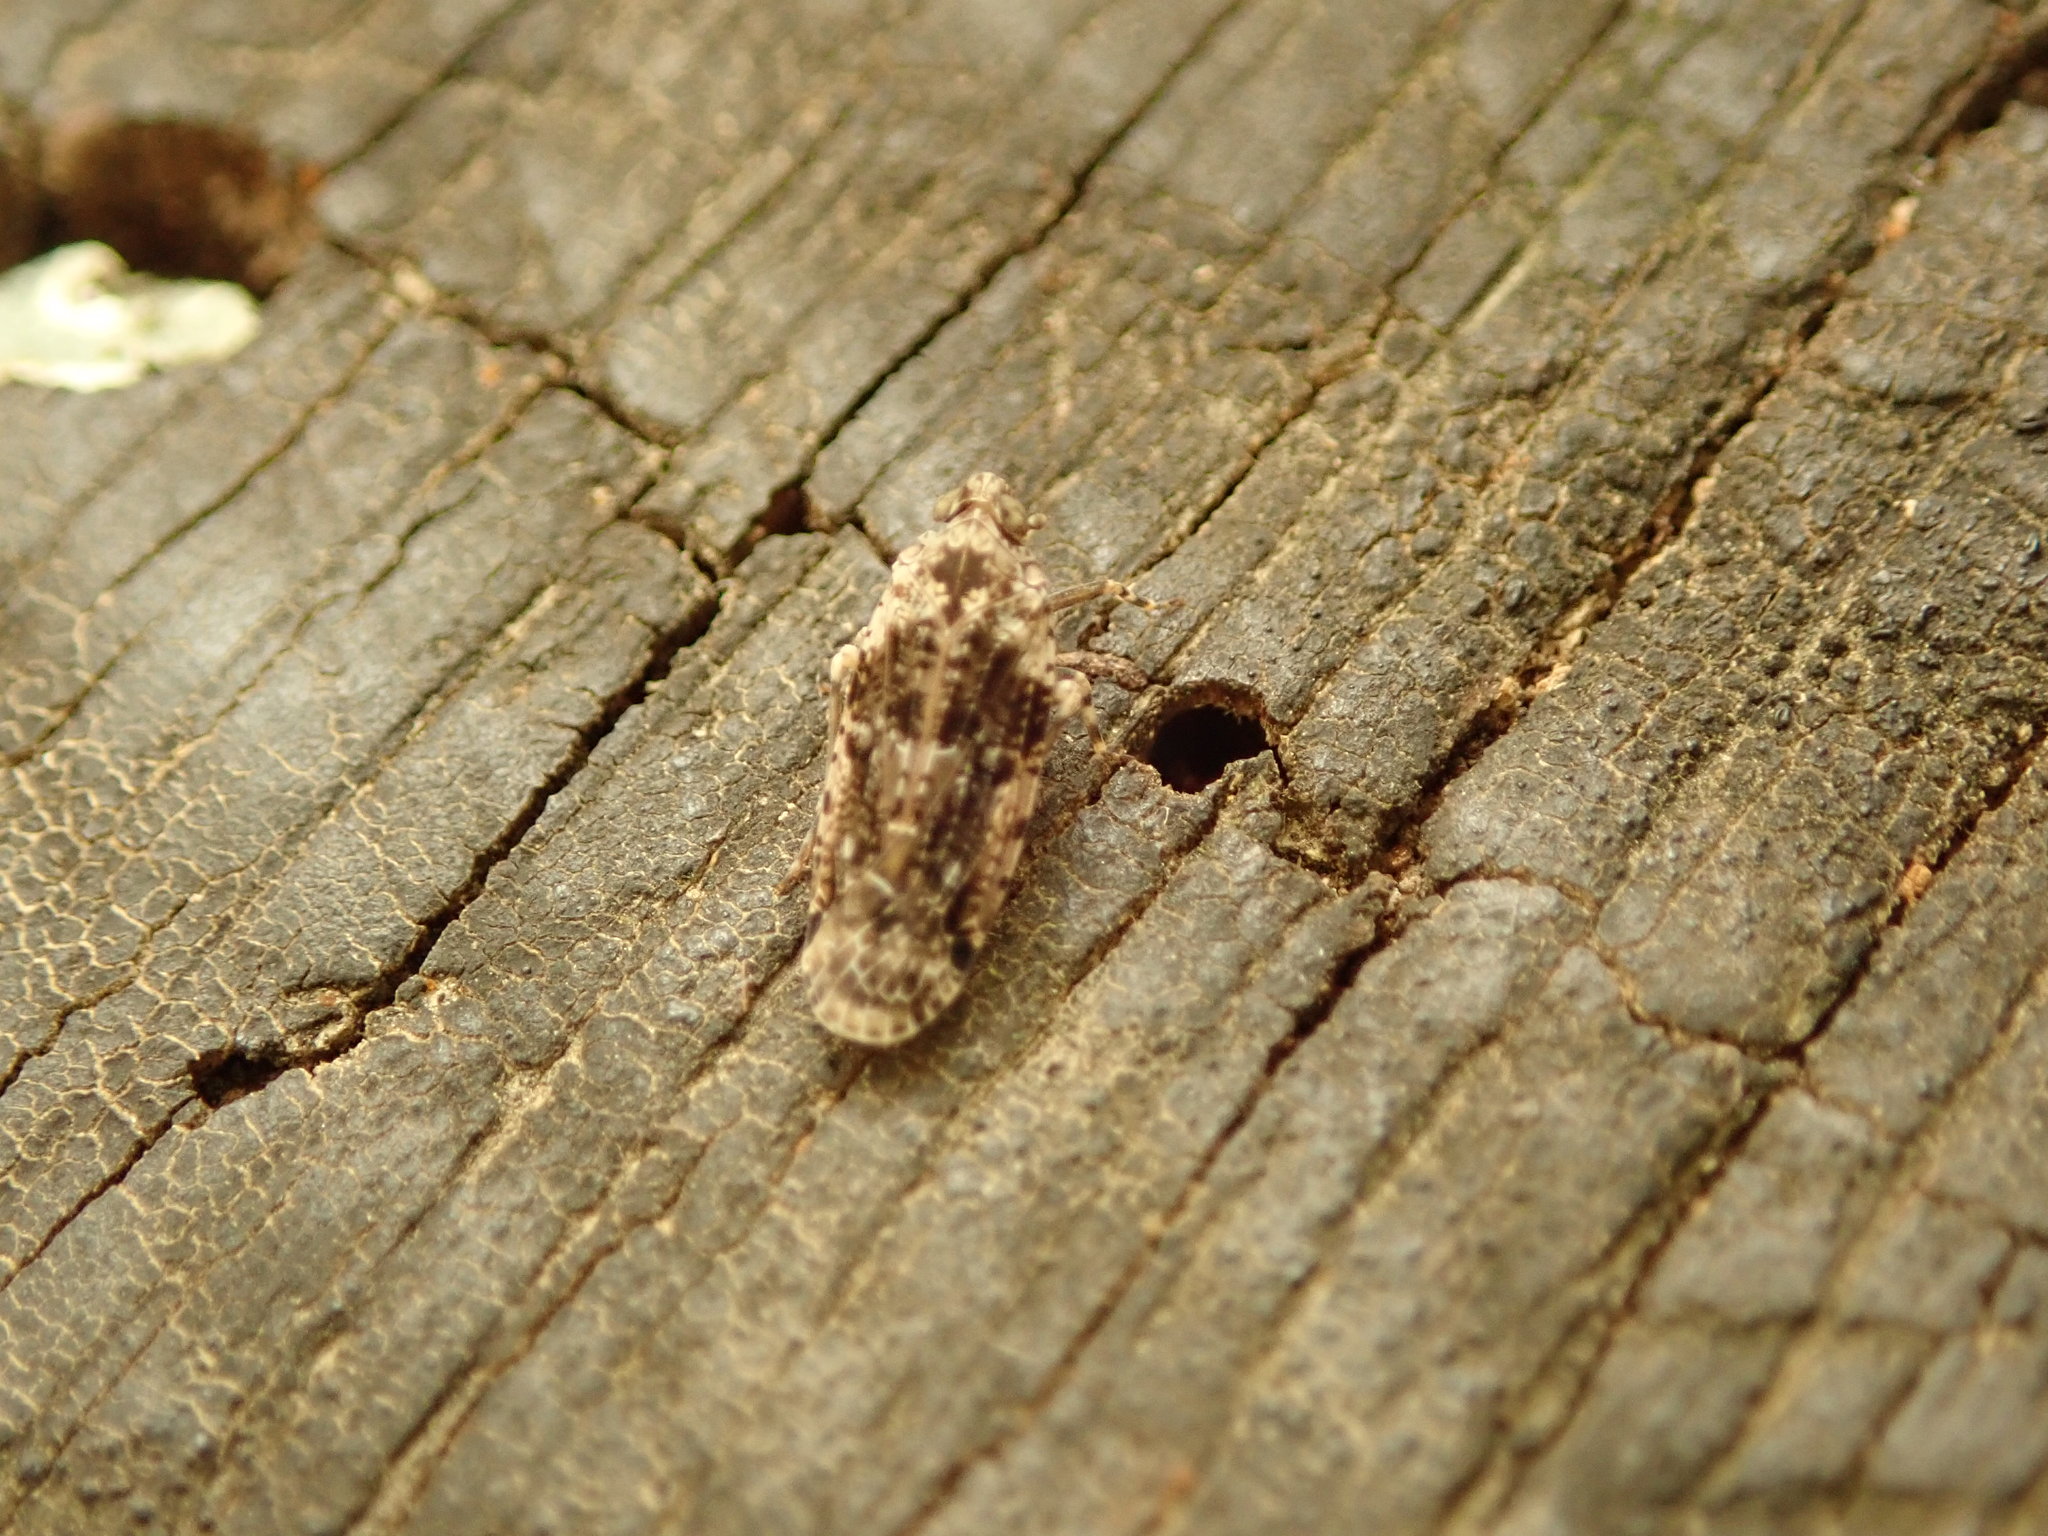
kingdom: Animalia
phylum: Arthropoda
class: Insecta
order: Hemiptera
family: Achilidae
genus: Catonia
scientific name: Catonia nava
